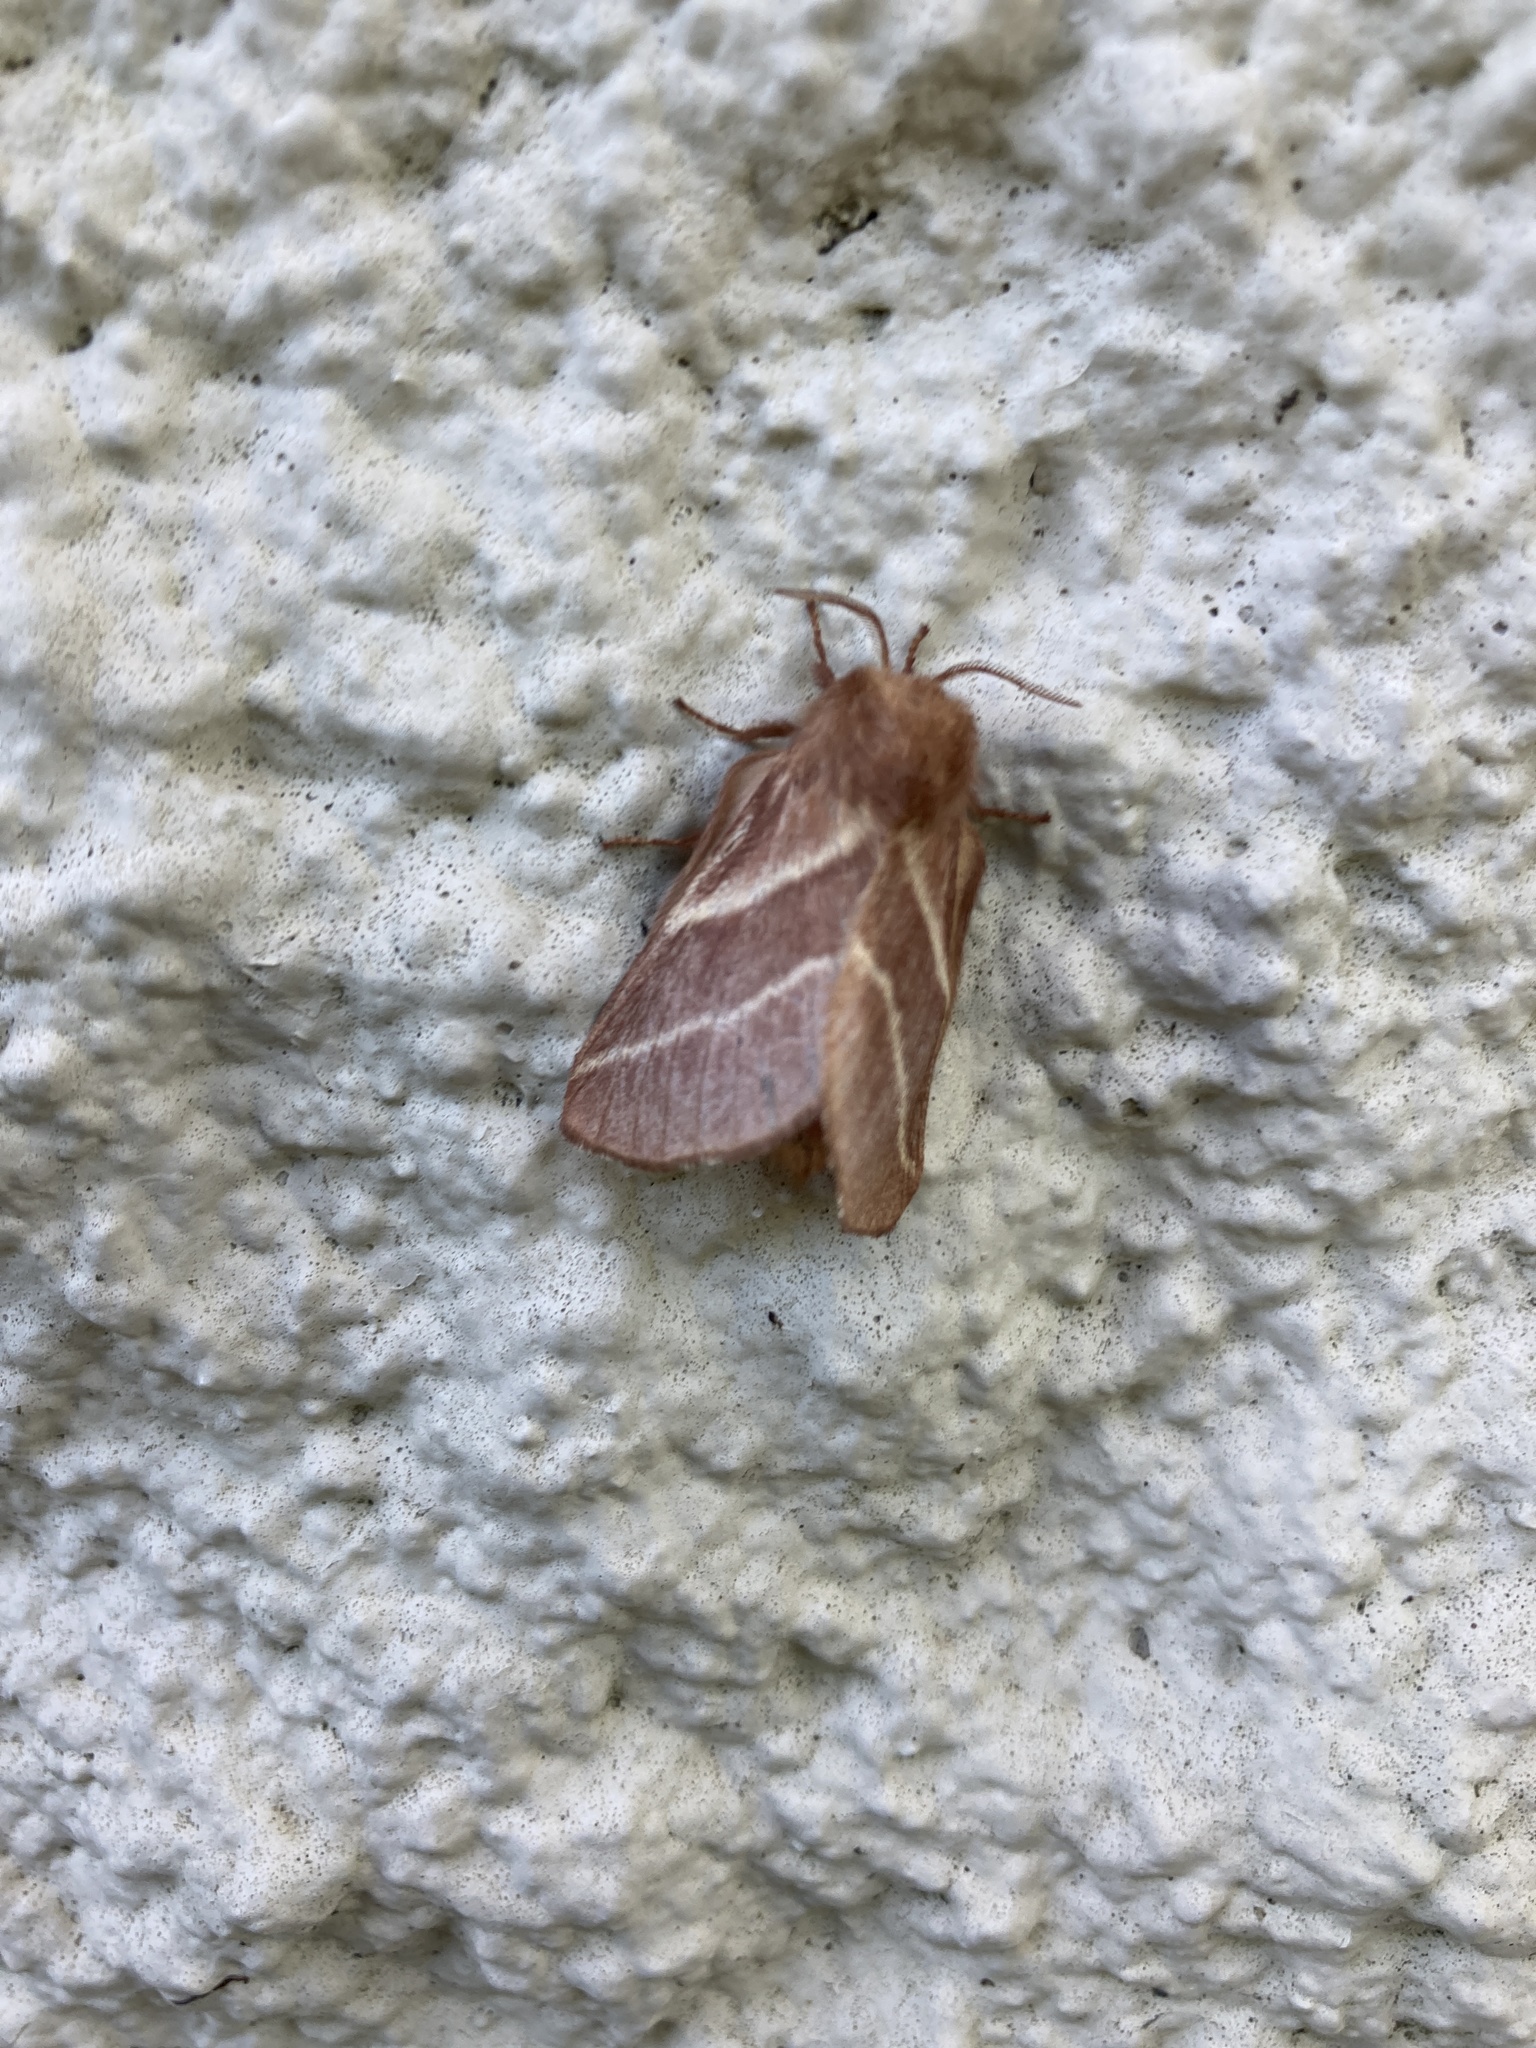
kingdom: Animalia
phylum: Arthropoda
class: Insecta
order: Lepidoptera
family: Lasiocampidae
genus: Malacosoma
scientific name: Malacosoma americana
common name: Eastern tent caterpillar moth
